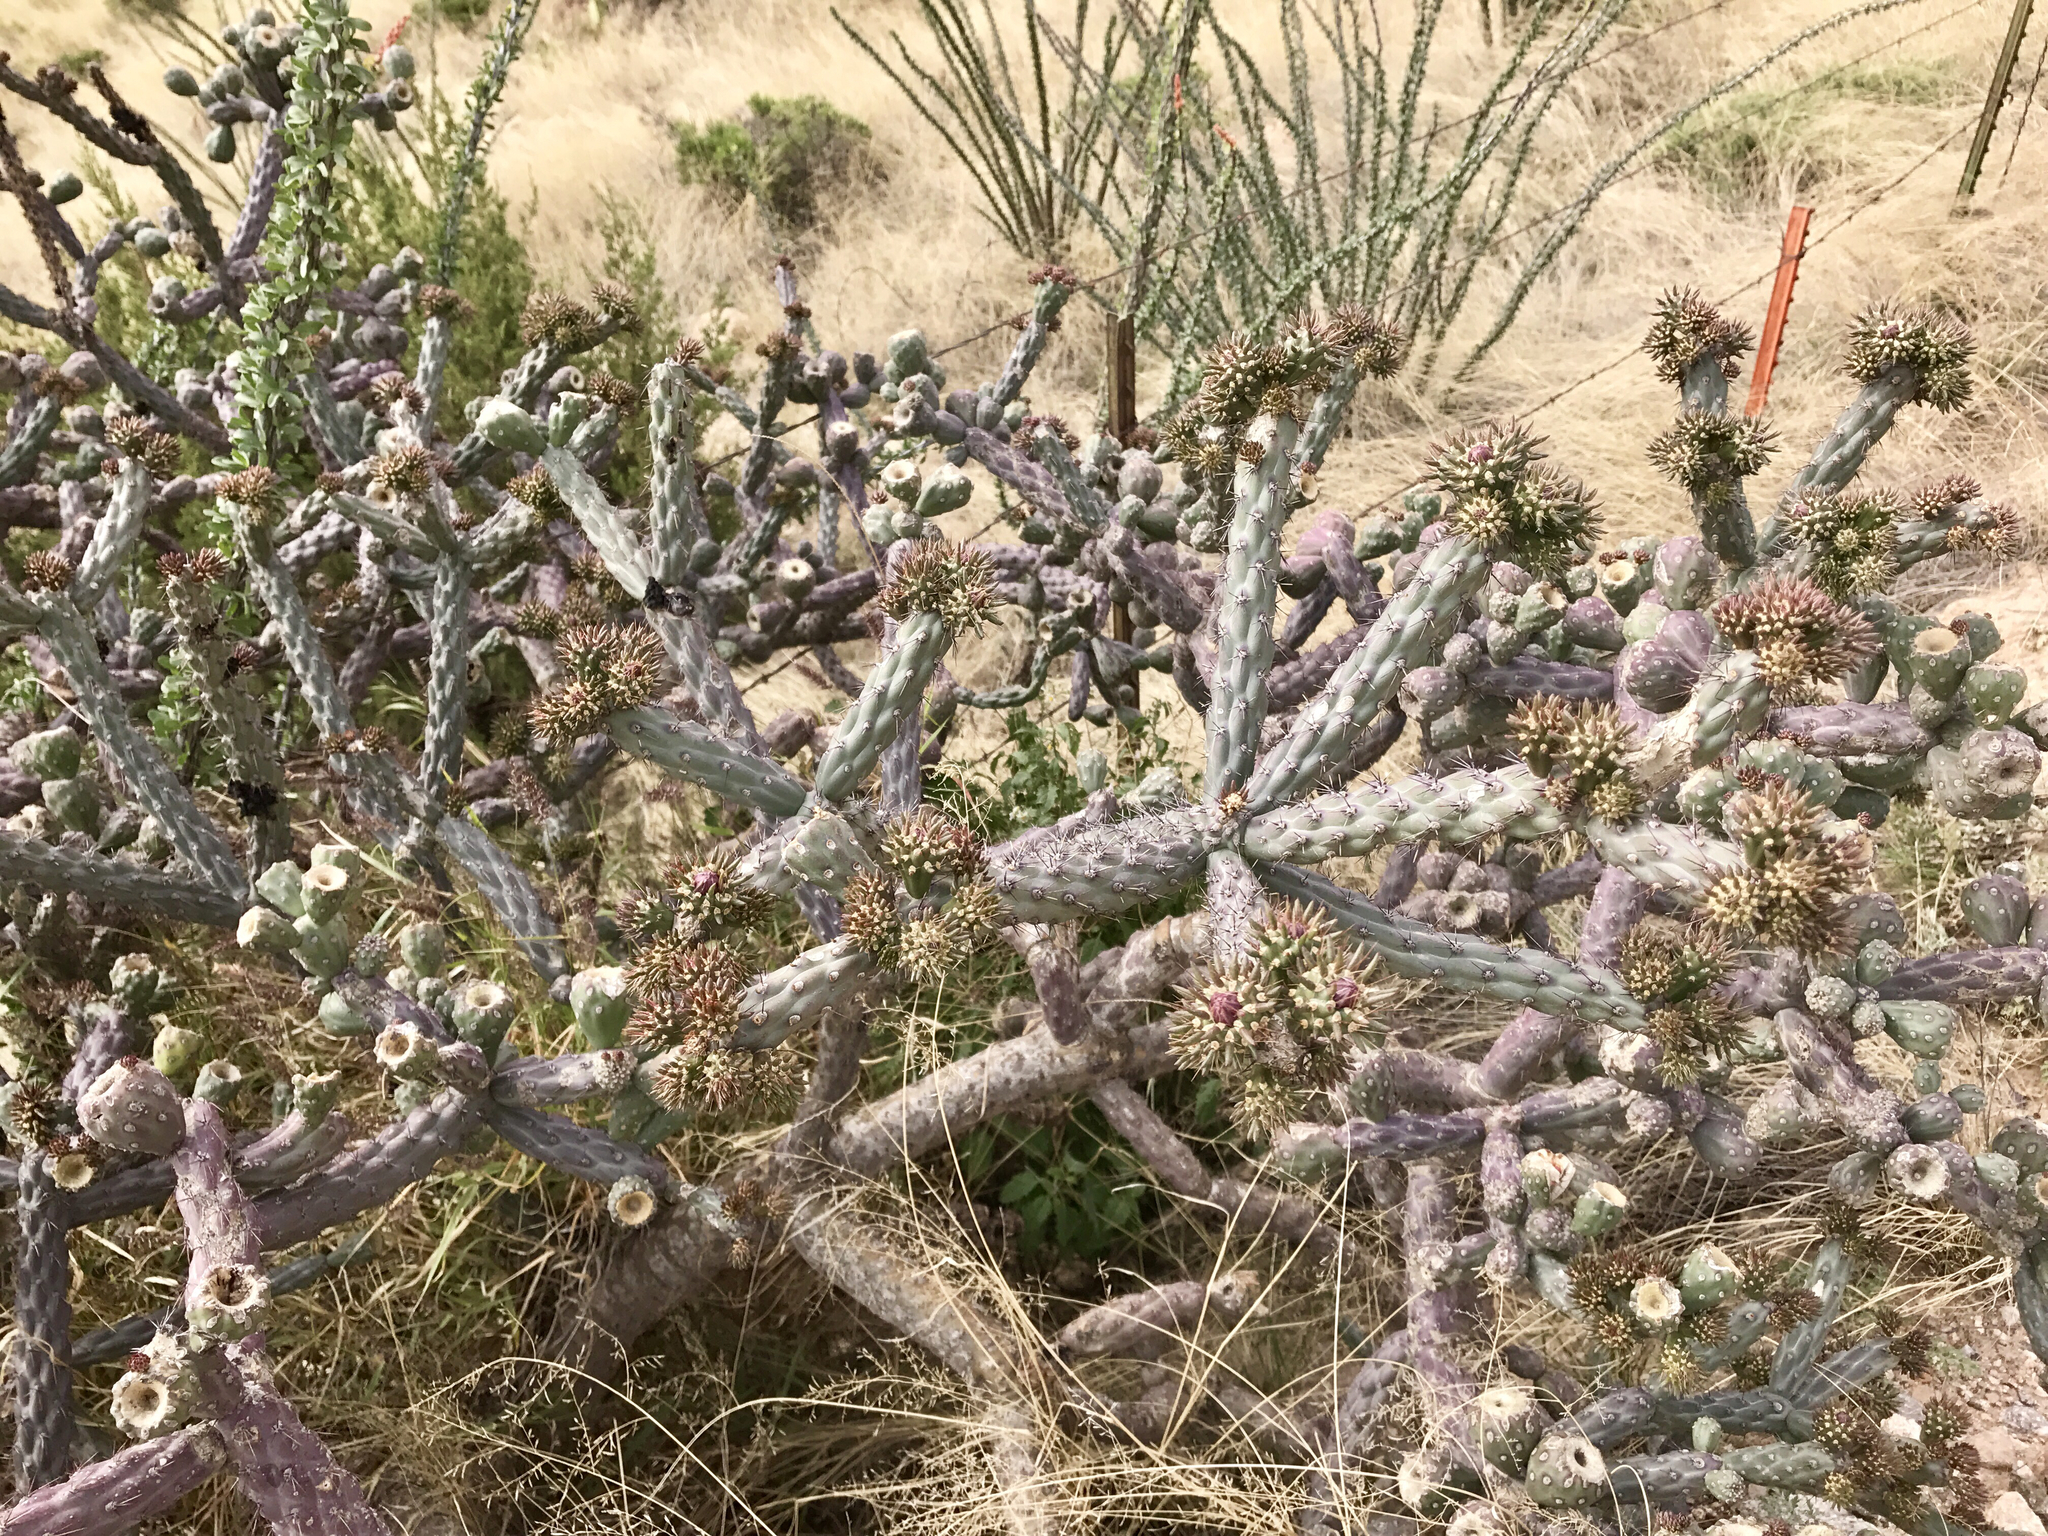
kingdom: Plantae
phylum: Tracheophyta
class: Magnoliopsida
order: Caryophyllales
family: Cactaceae
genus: Cylindropuntia
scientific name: Cylindropuntia thurberi
